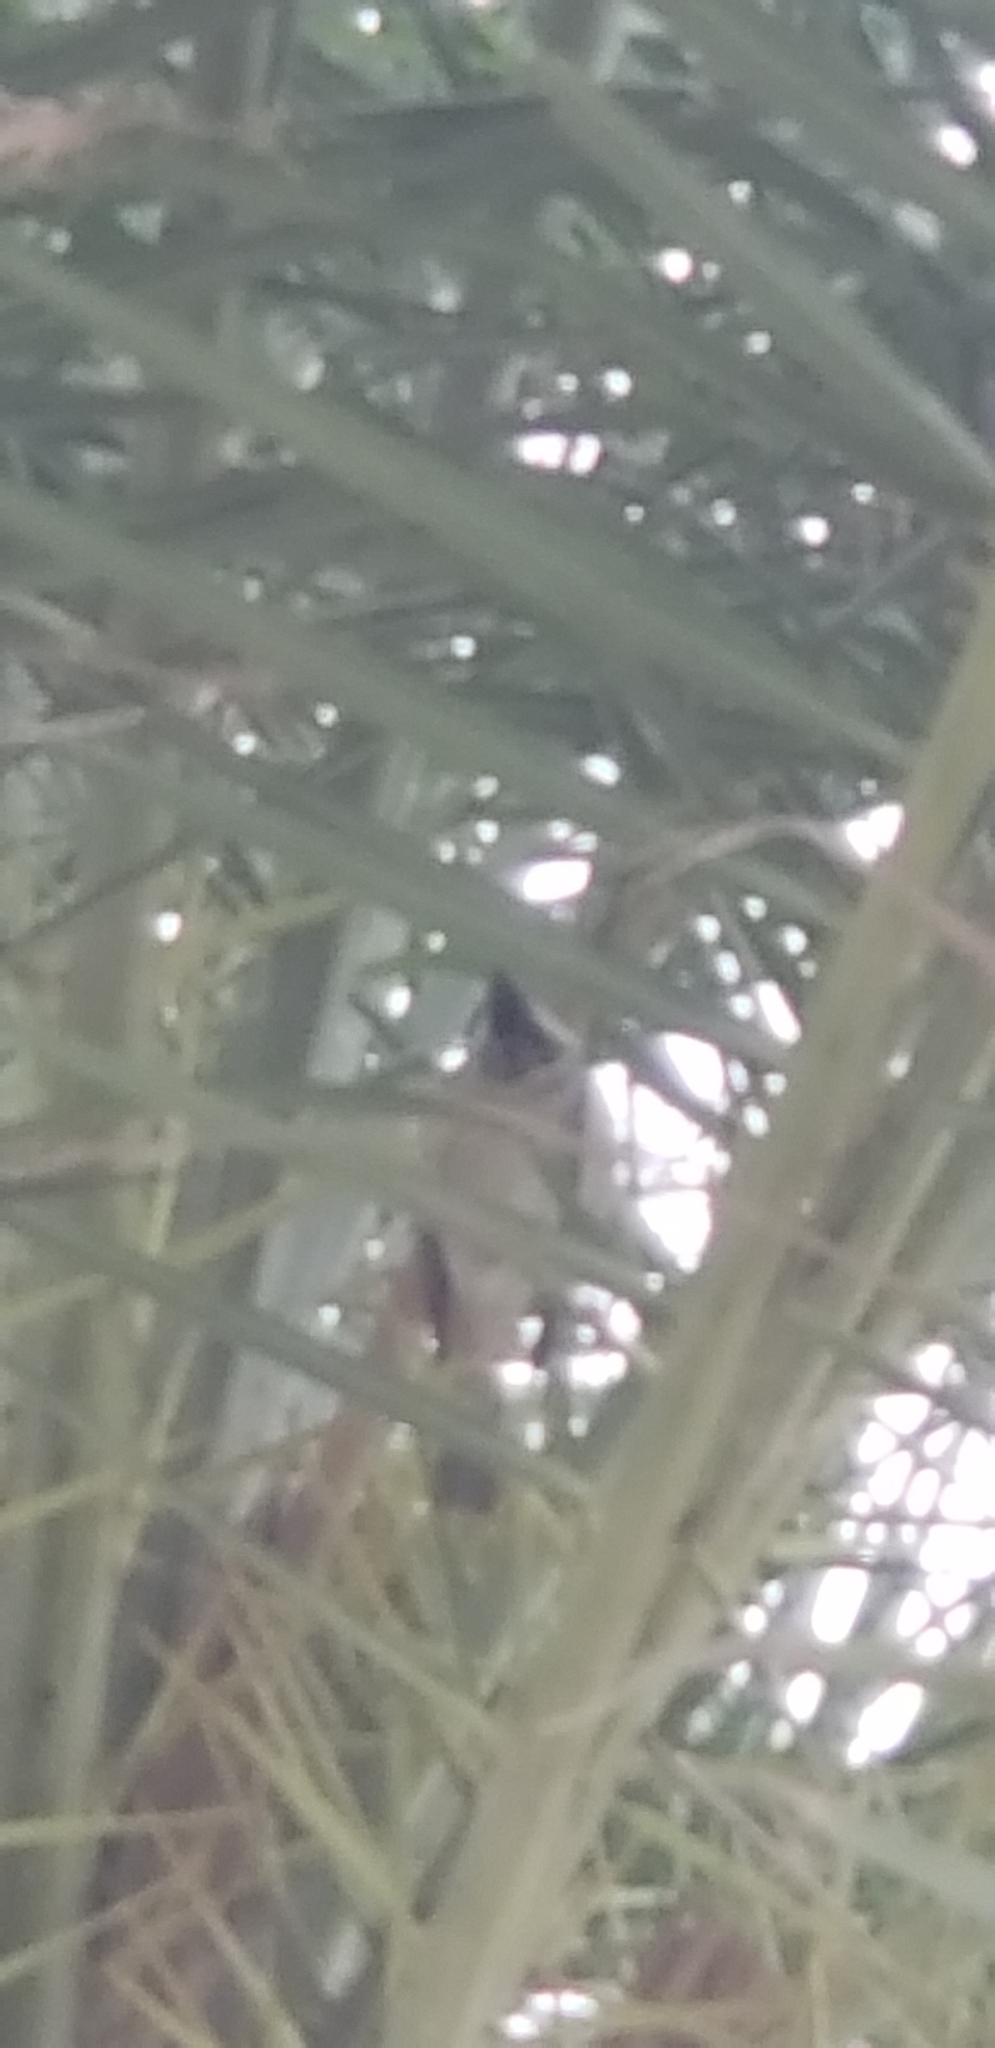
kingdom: Animalia
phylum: Chordata
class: Aves
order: Passeriformes
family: Passeridae
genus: Passer
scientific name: Passer domesticus
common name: House sparrow
